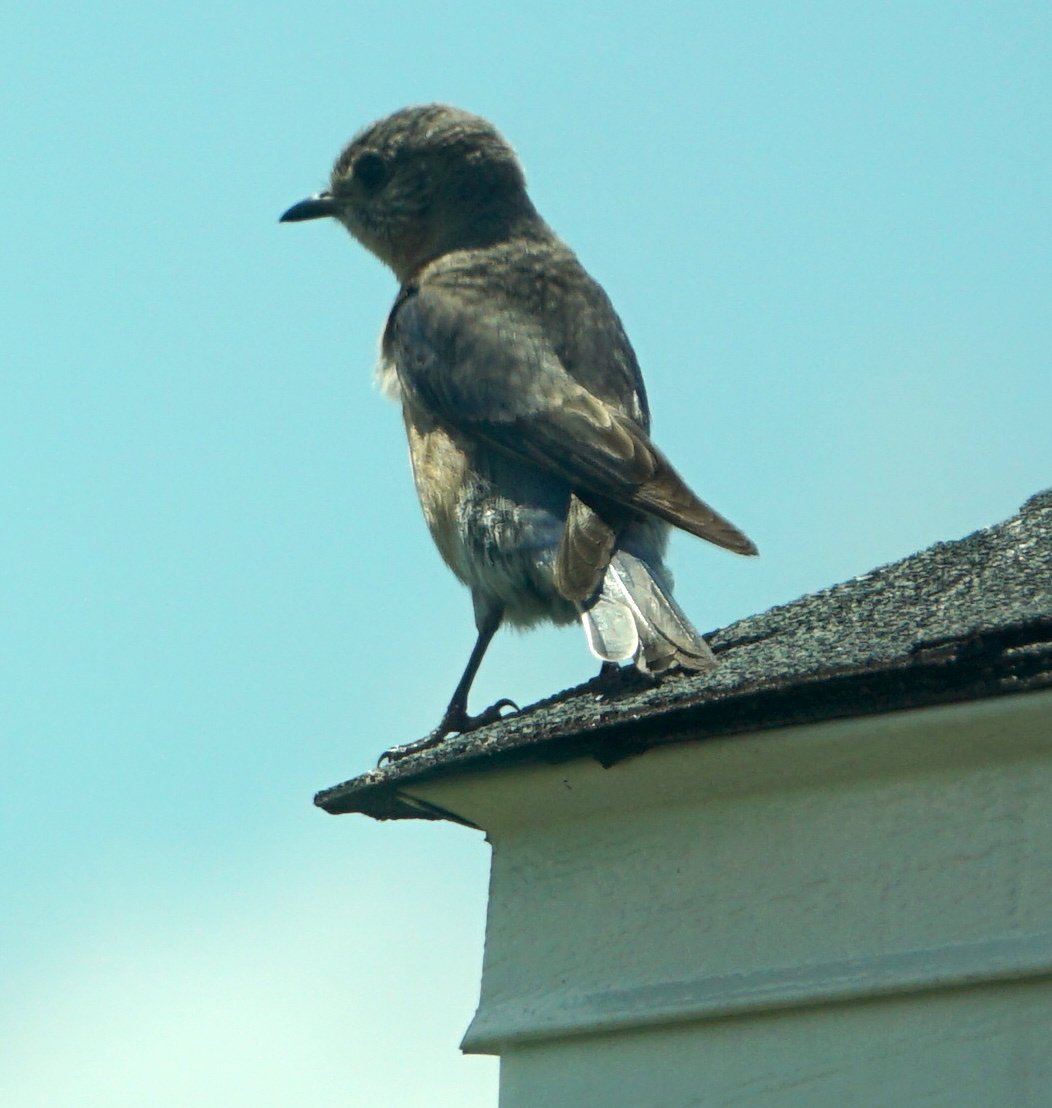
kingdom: Animalia
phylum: Chordata
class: Aves
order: Passeriformes
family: Turdidae
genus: Sialia
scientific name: Sialia sialis
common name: Eastern bluebird
